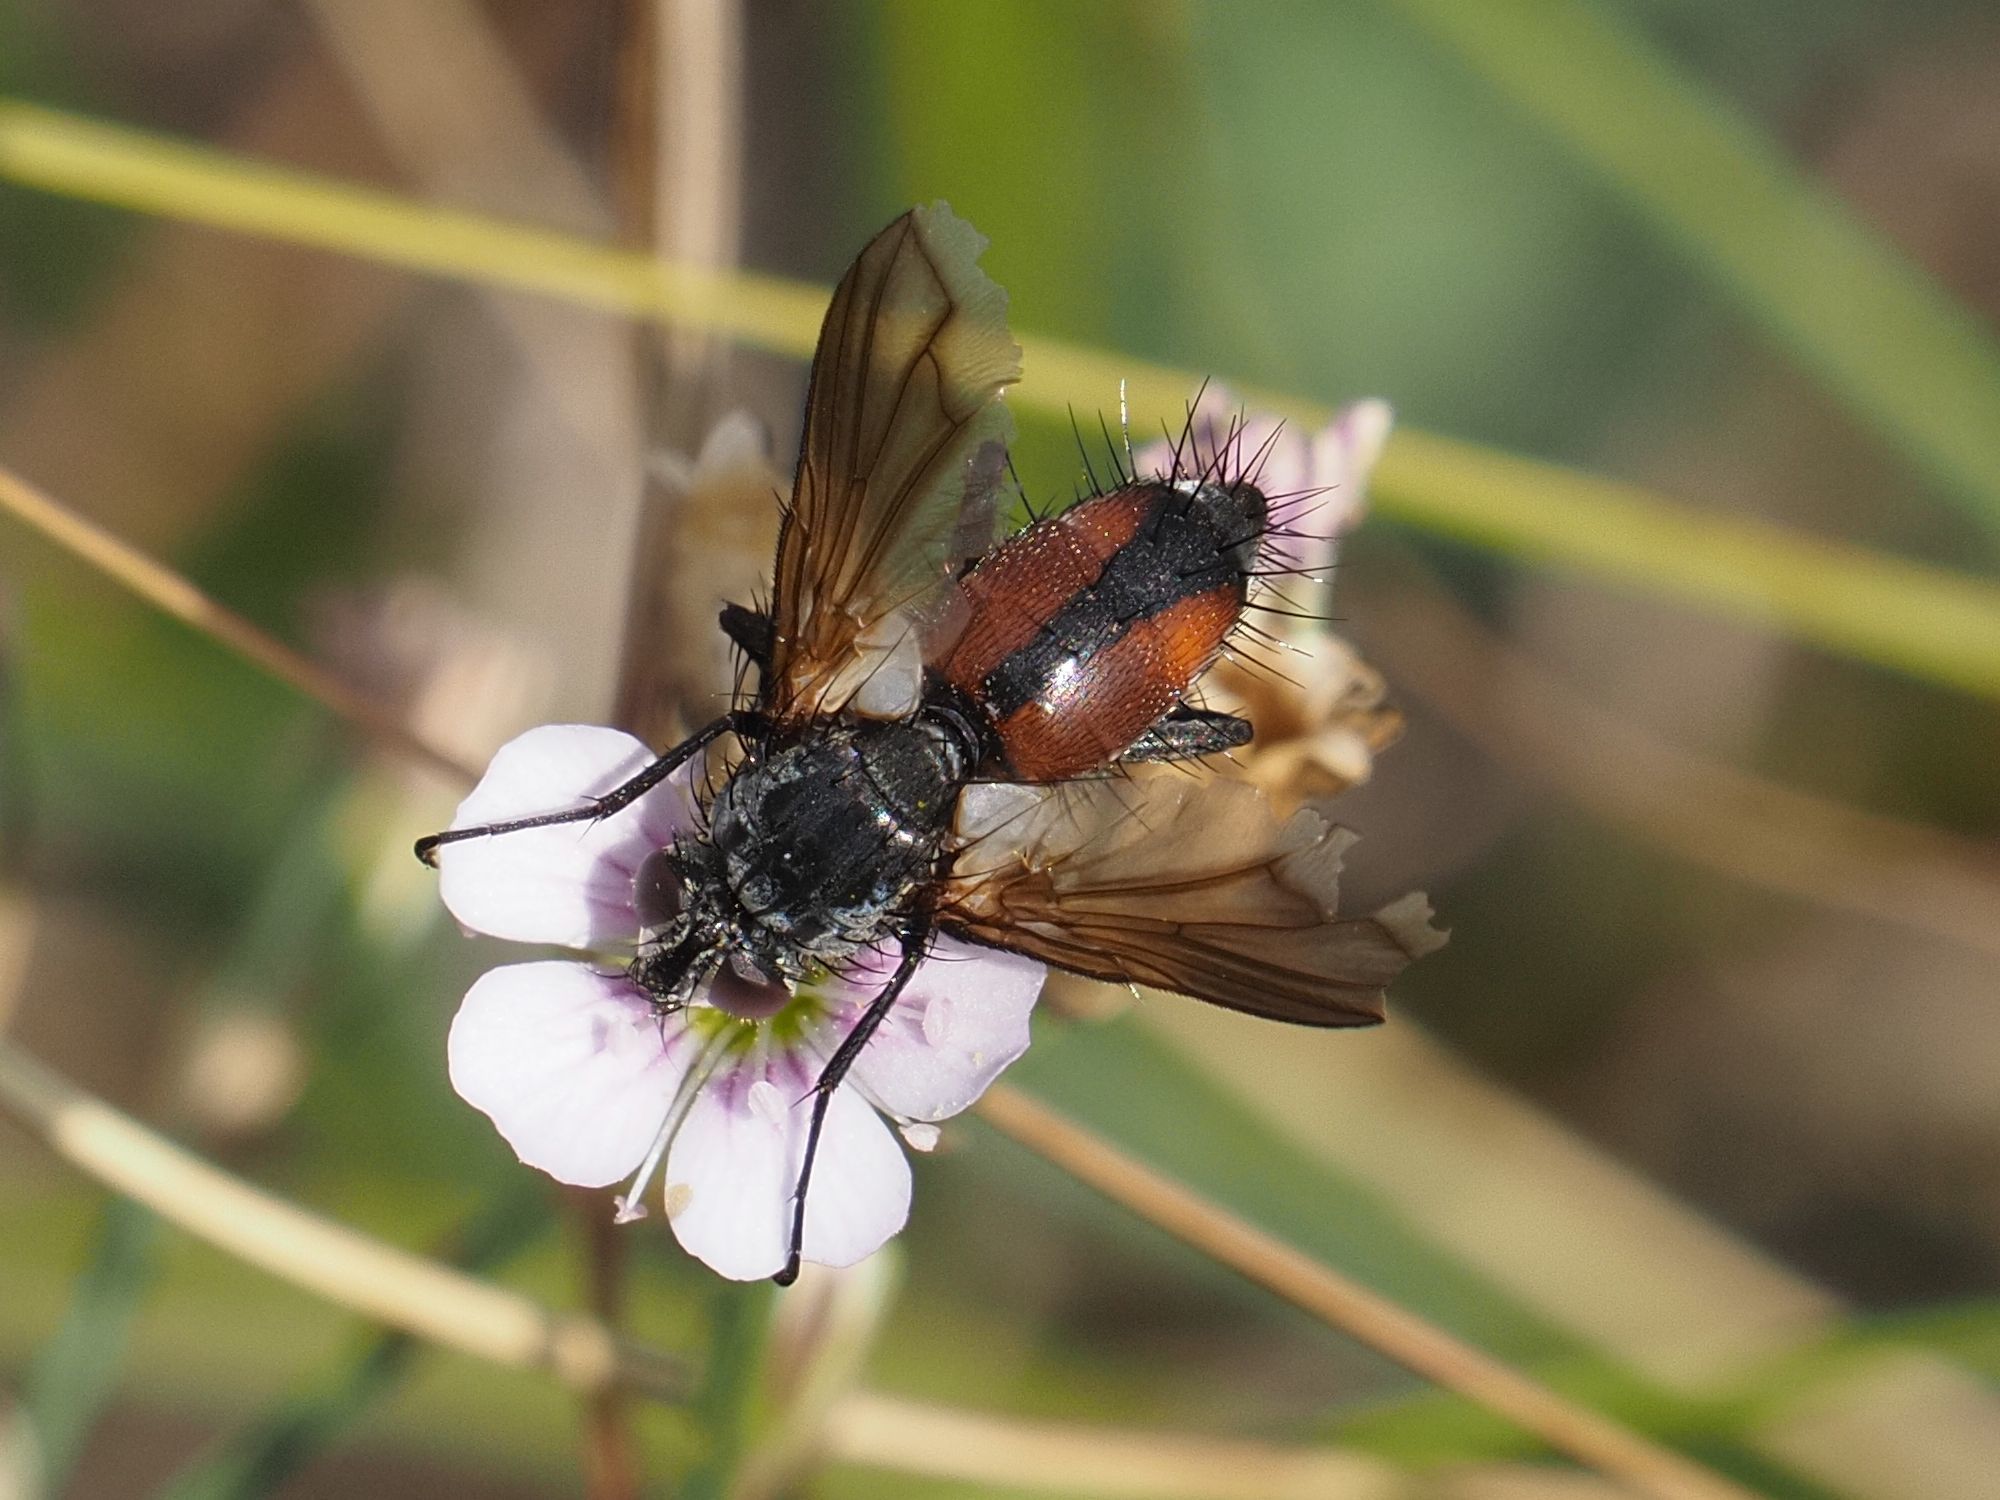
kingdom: Animalia
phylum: Arthropoda
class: Insecta
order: Diptera
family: Tachinidae
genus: Eriothrix
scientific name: Eriothrix rufomaculatus
